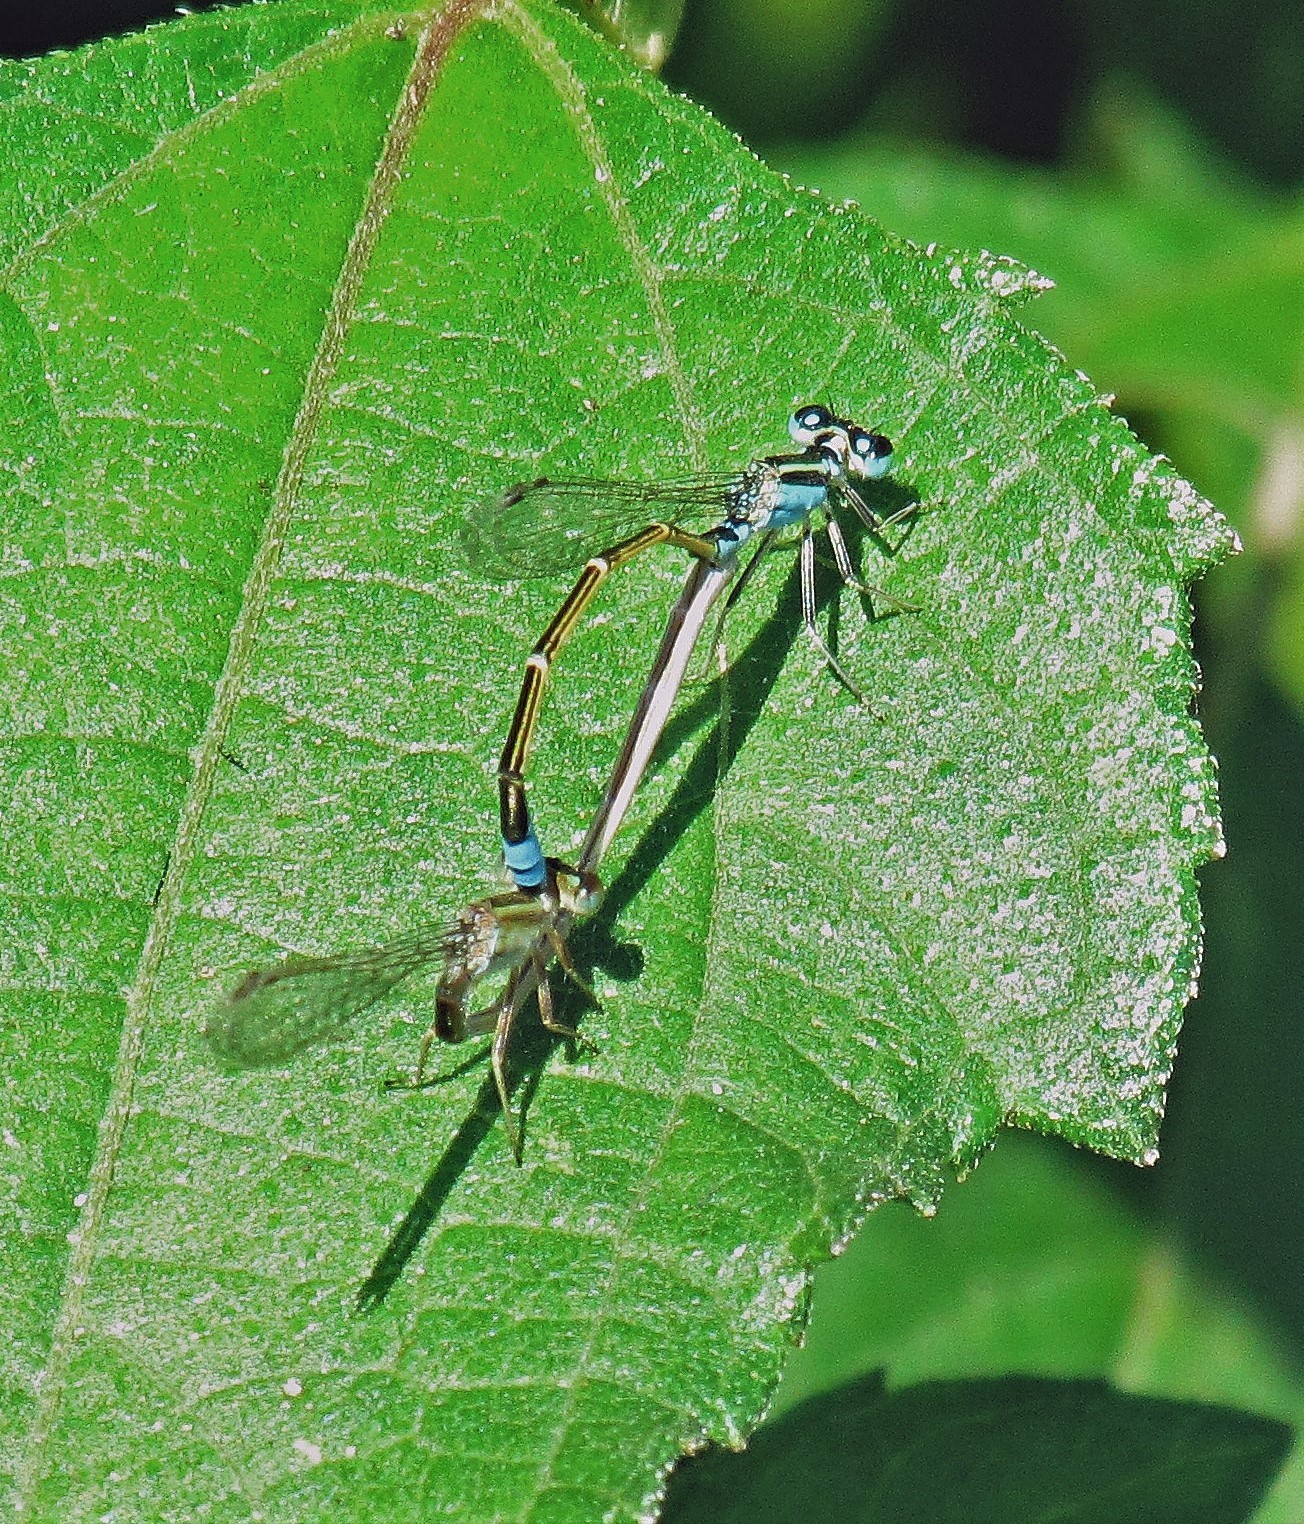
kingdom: Animalia
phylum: Arthropoda
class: Insecta
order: Odonata
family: Coenagrionidae
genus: Ischnura
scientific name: Ischnura fluviatilis
